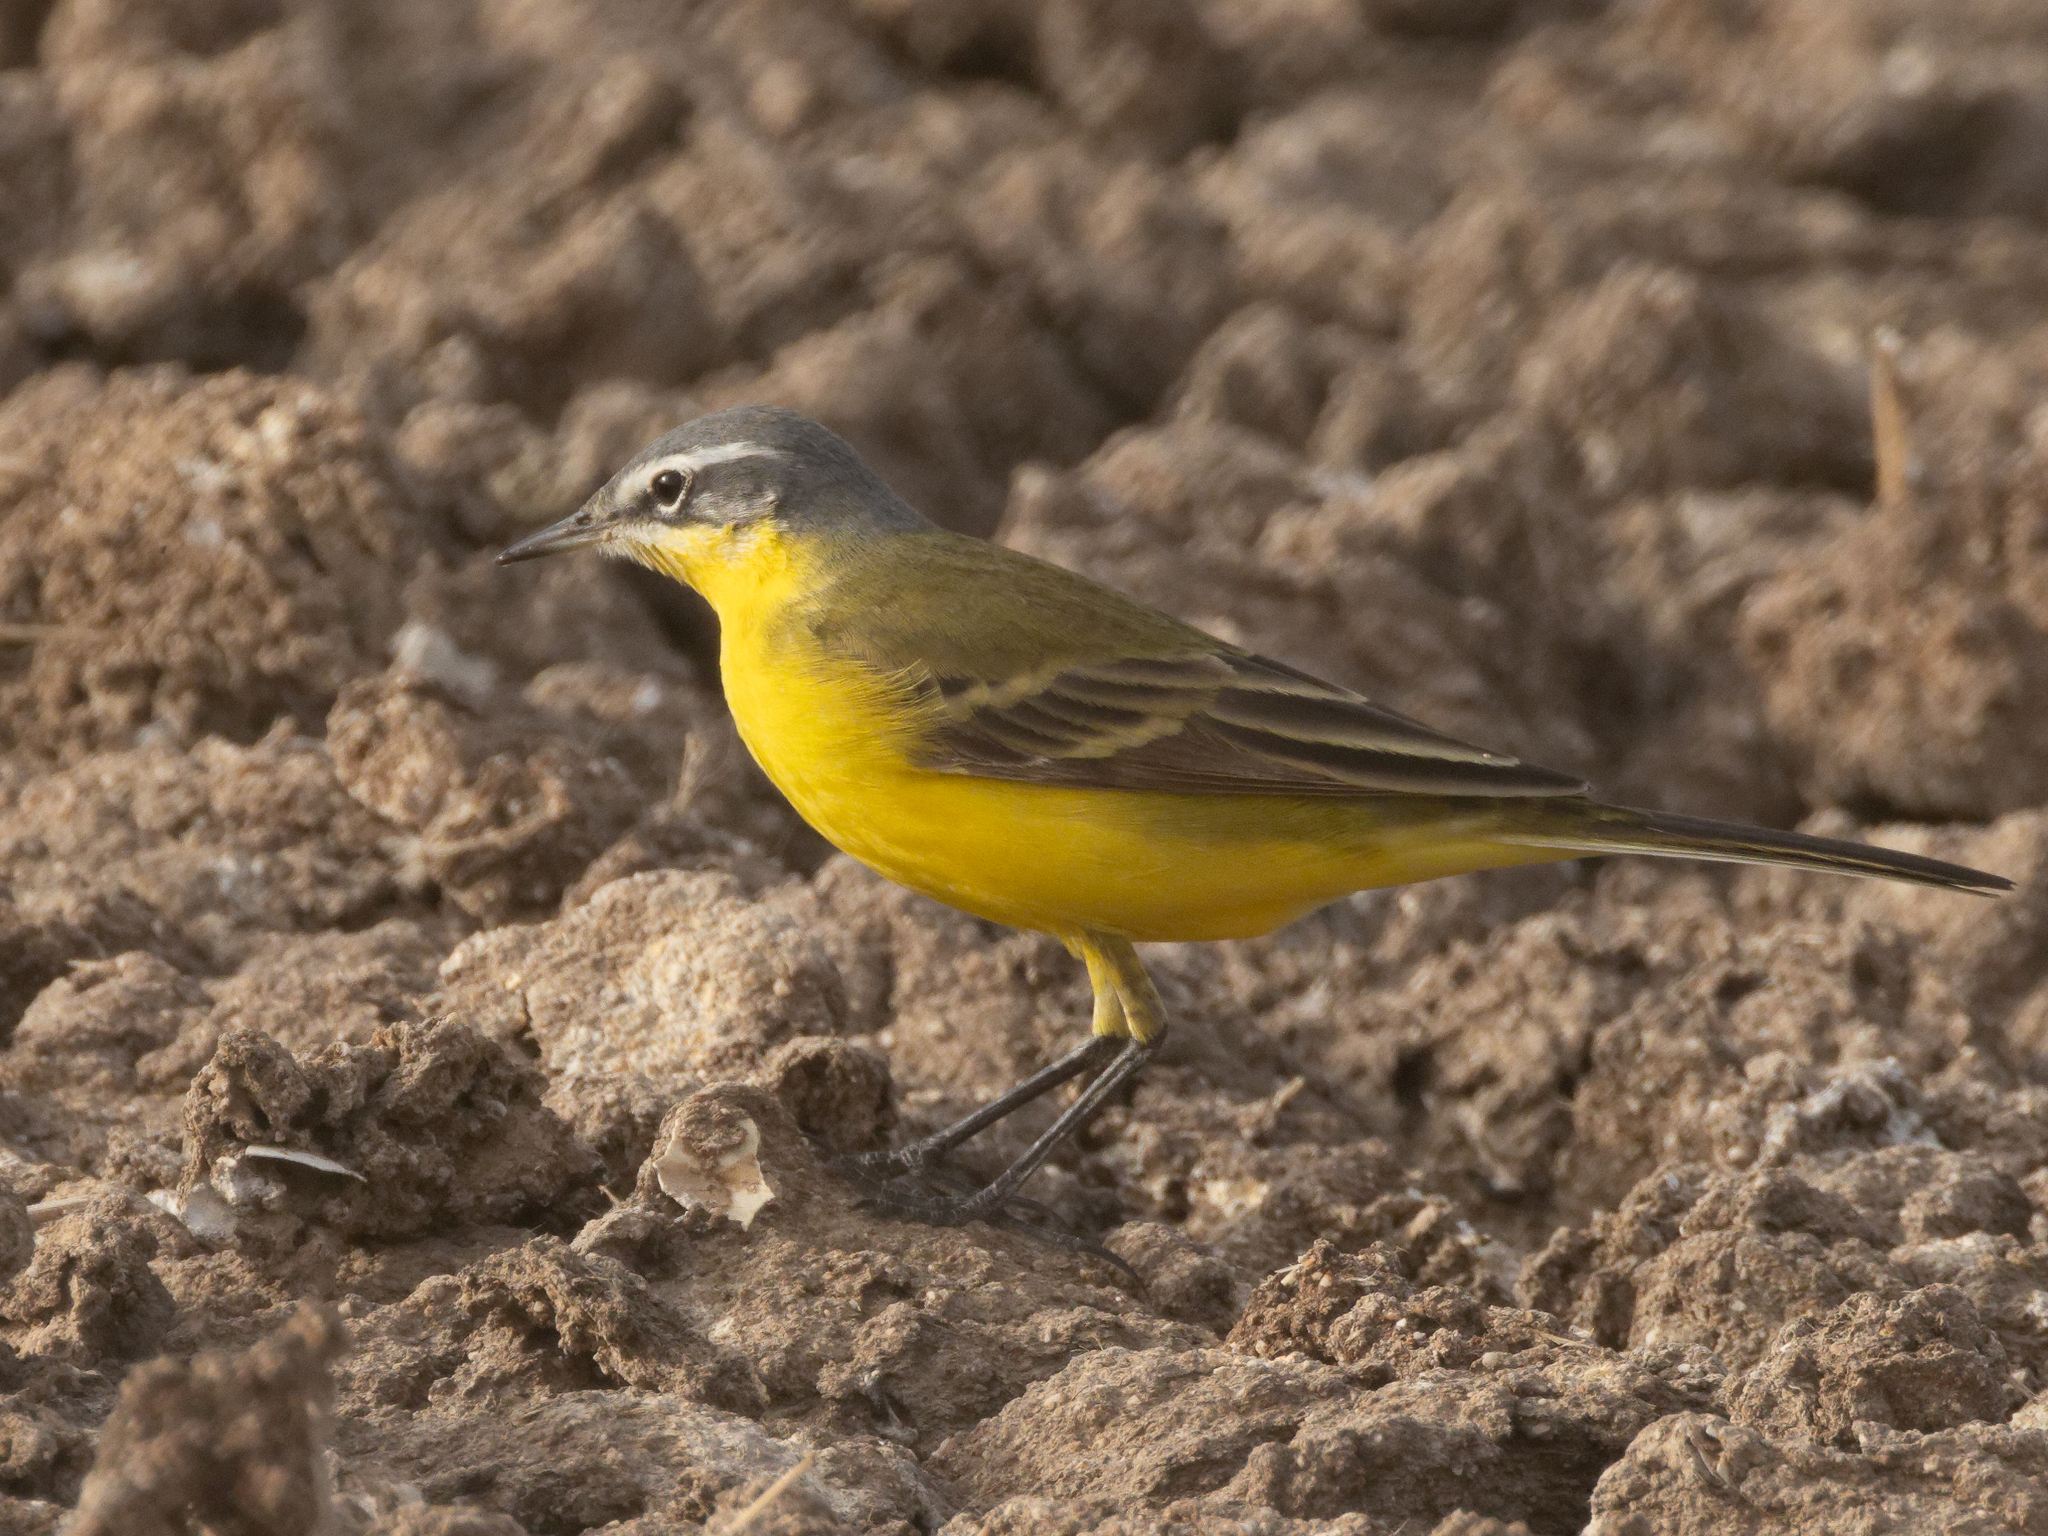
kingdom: Animalia
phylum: Chordata
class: Aves
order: Passeriformes
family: Motacillidae
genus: Motacilla
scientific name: Motacilla flava
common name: Western yellow wagtail
